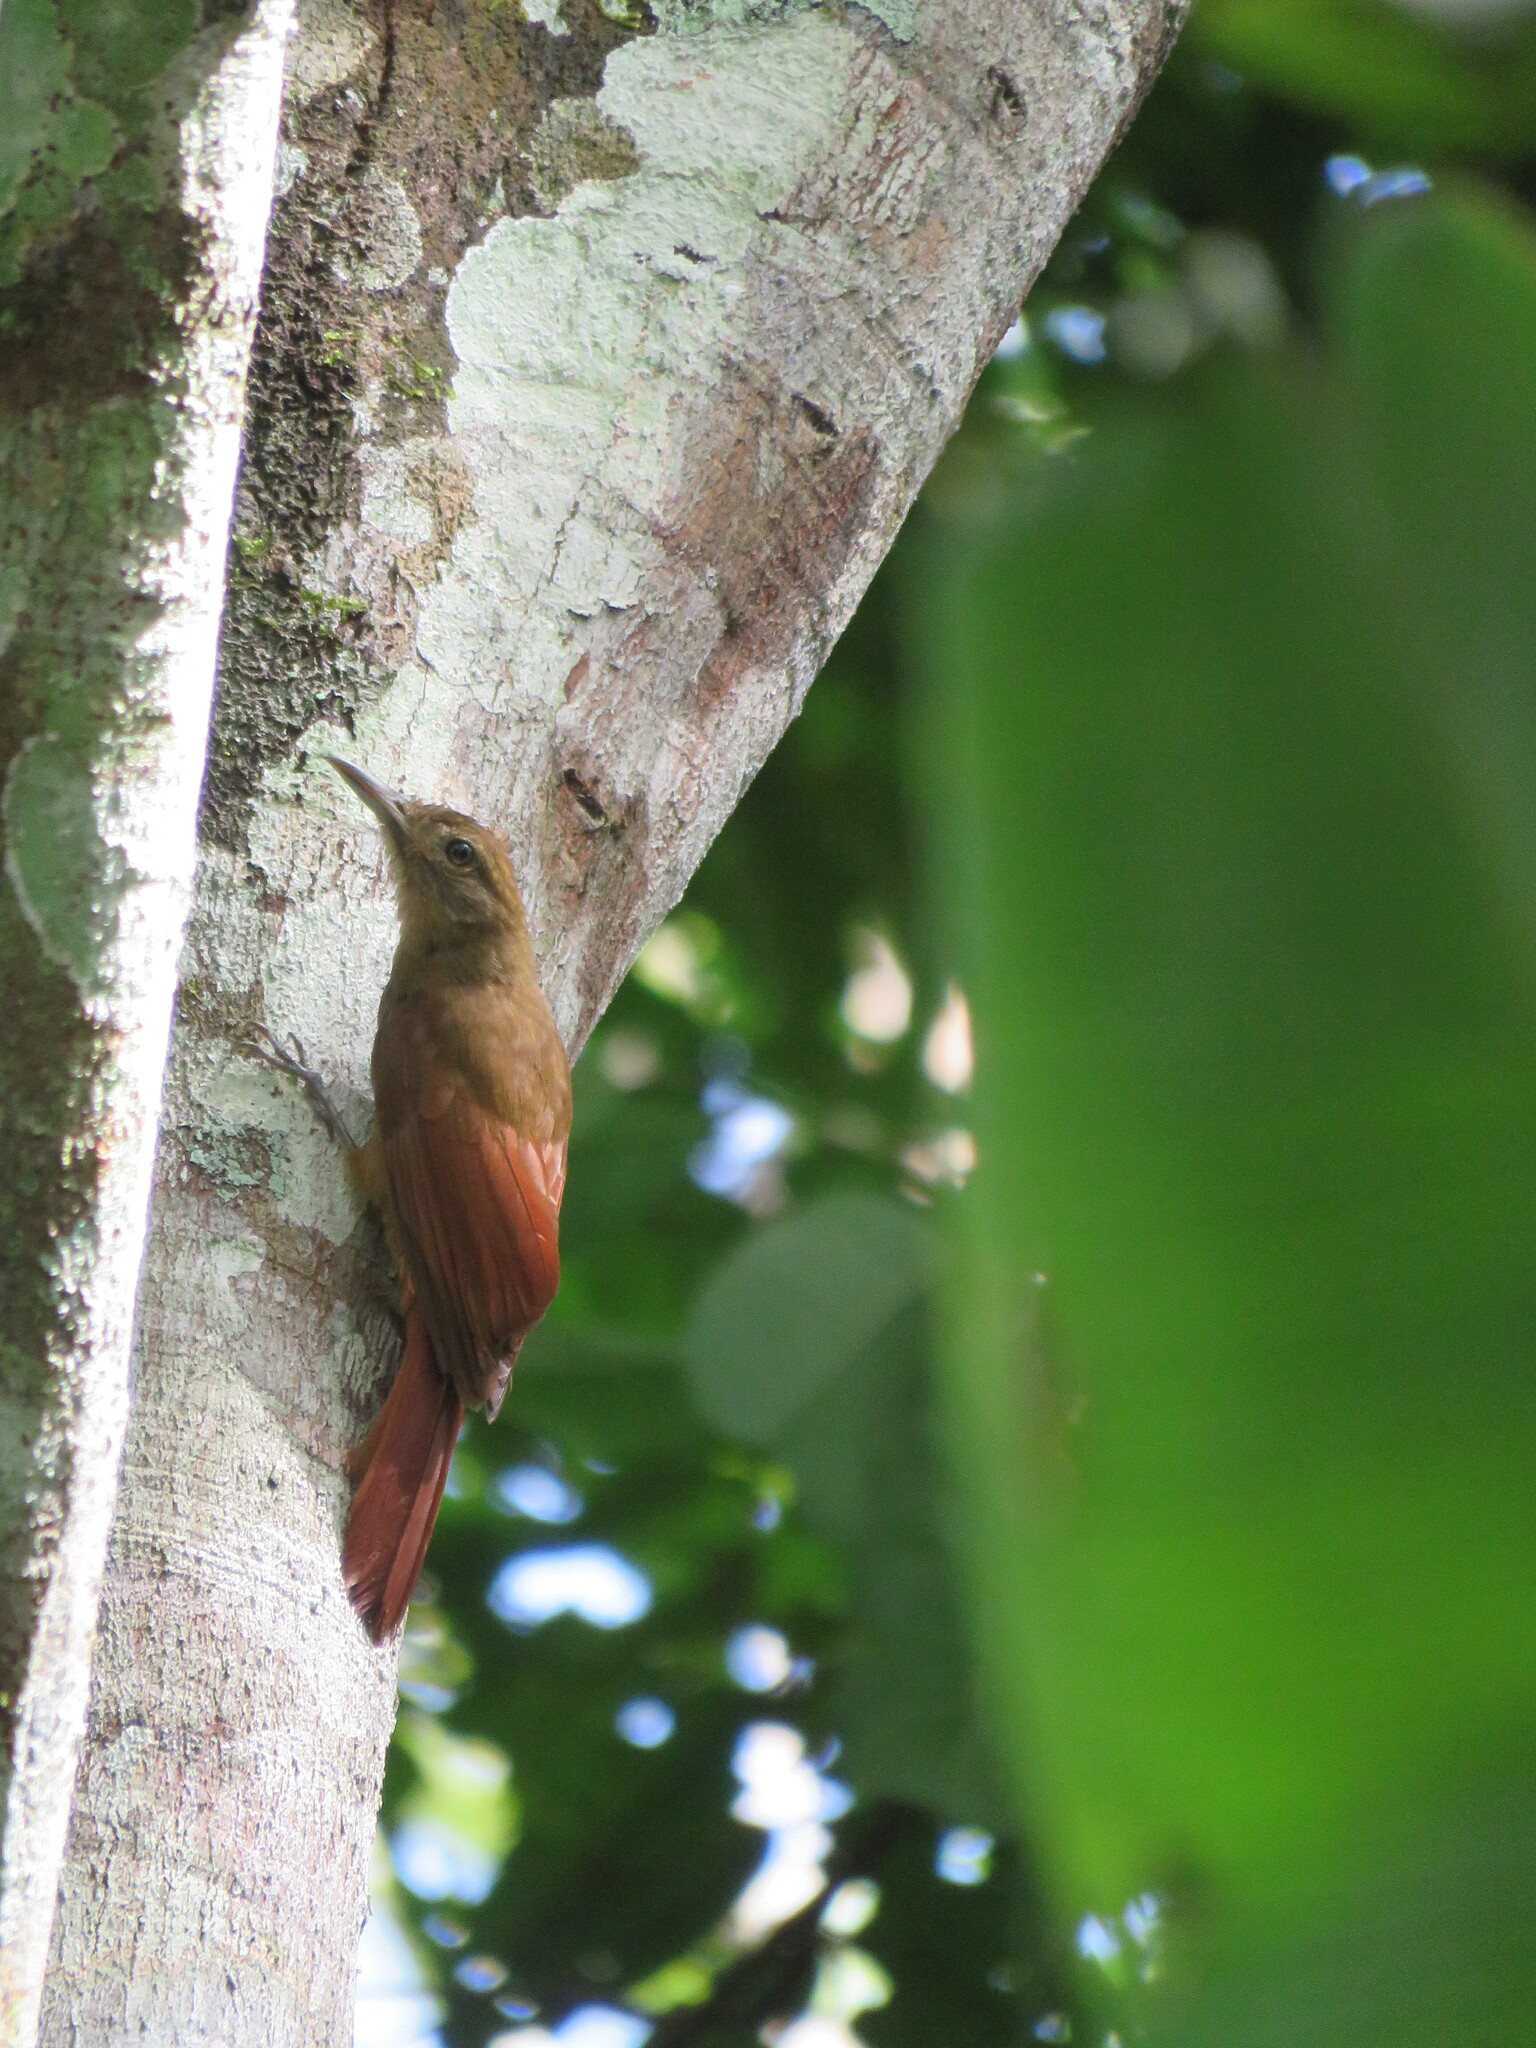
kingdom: Animalia
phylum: Chordata
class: Aves
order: Passeriformes
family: Furnariidae
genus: Dendrocincla
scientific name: Dendrocincla fuliginosa
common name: Plain-brown woodcreeper
